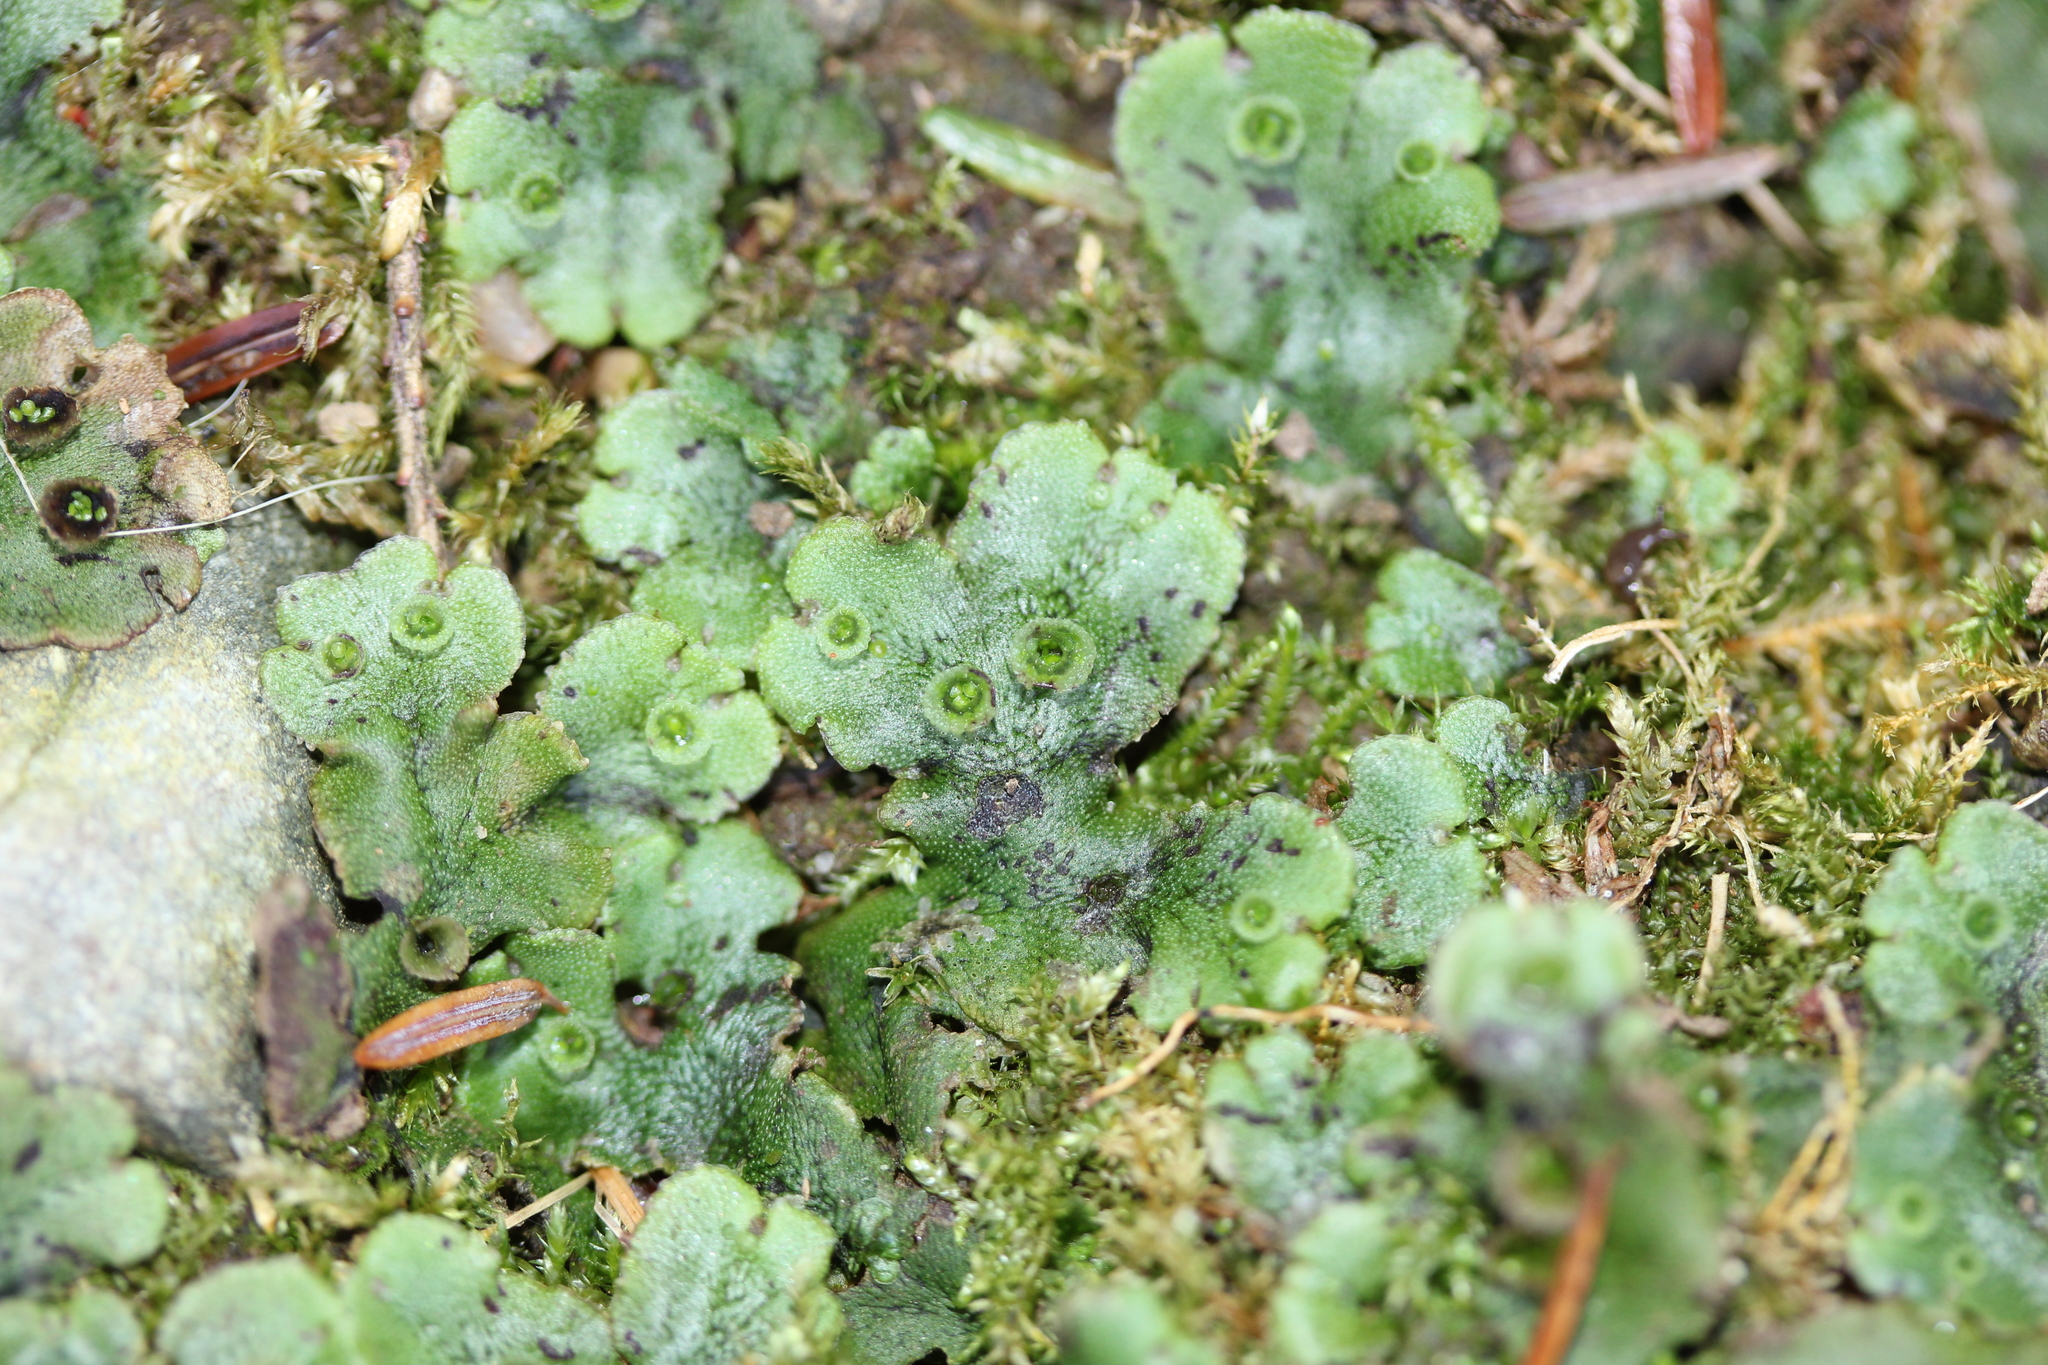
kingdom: Plantae
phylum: Marchantiophyta
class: Marchantiopsida
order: Marchantiales
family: Marchantiaceae
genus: Marchantia
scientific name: Marchantia polymorpha
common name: Common liverwort
